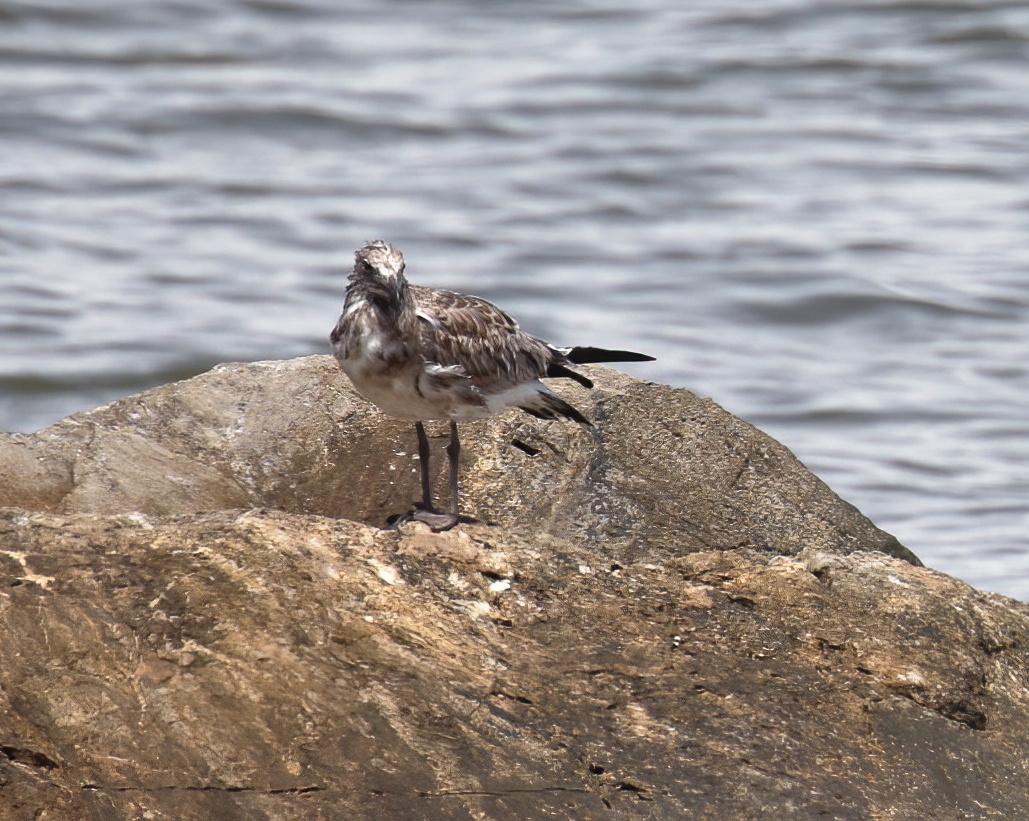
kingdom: Animalia
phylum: Chordata
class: Aves
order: Charadriiformes
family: Laridae
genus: Leucophaeus
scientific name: Leucophaeus atricilla
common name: Laughing gull
